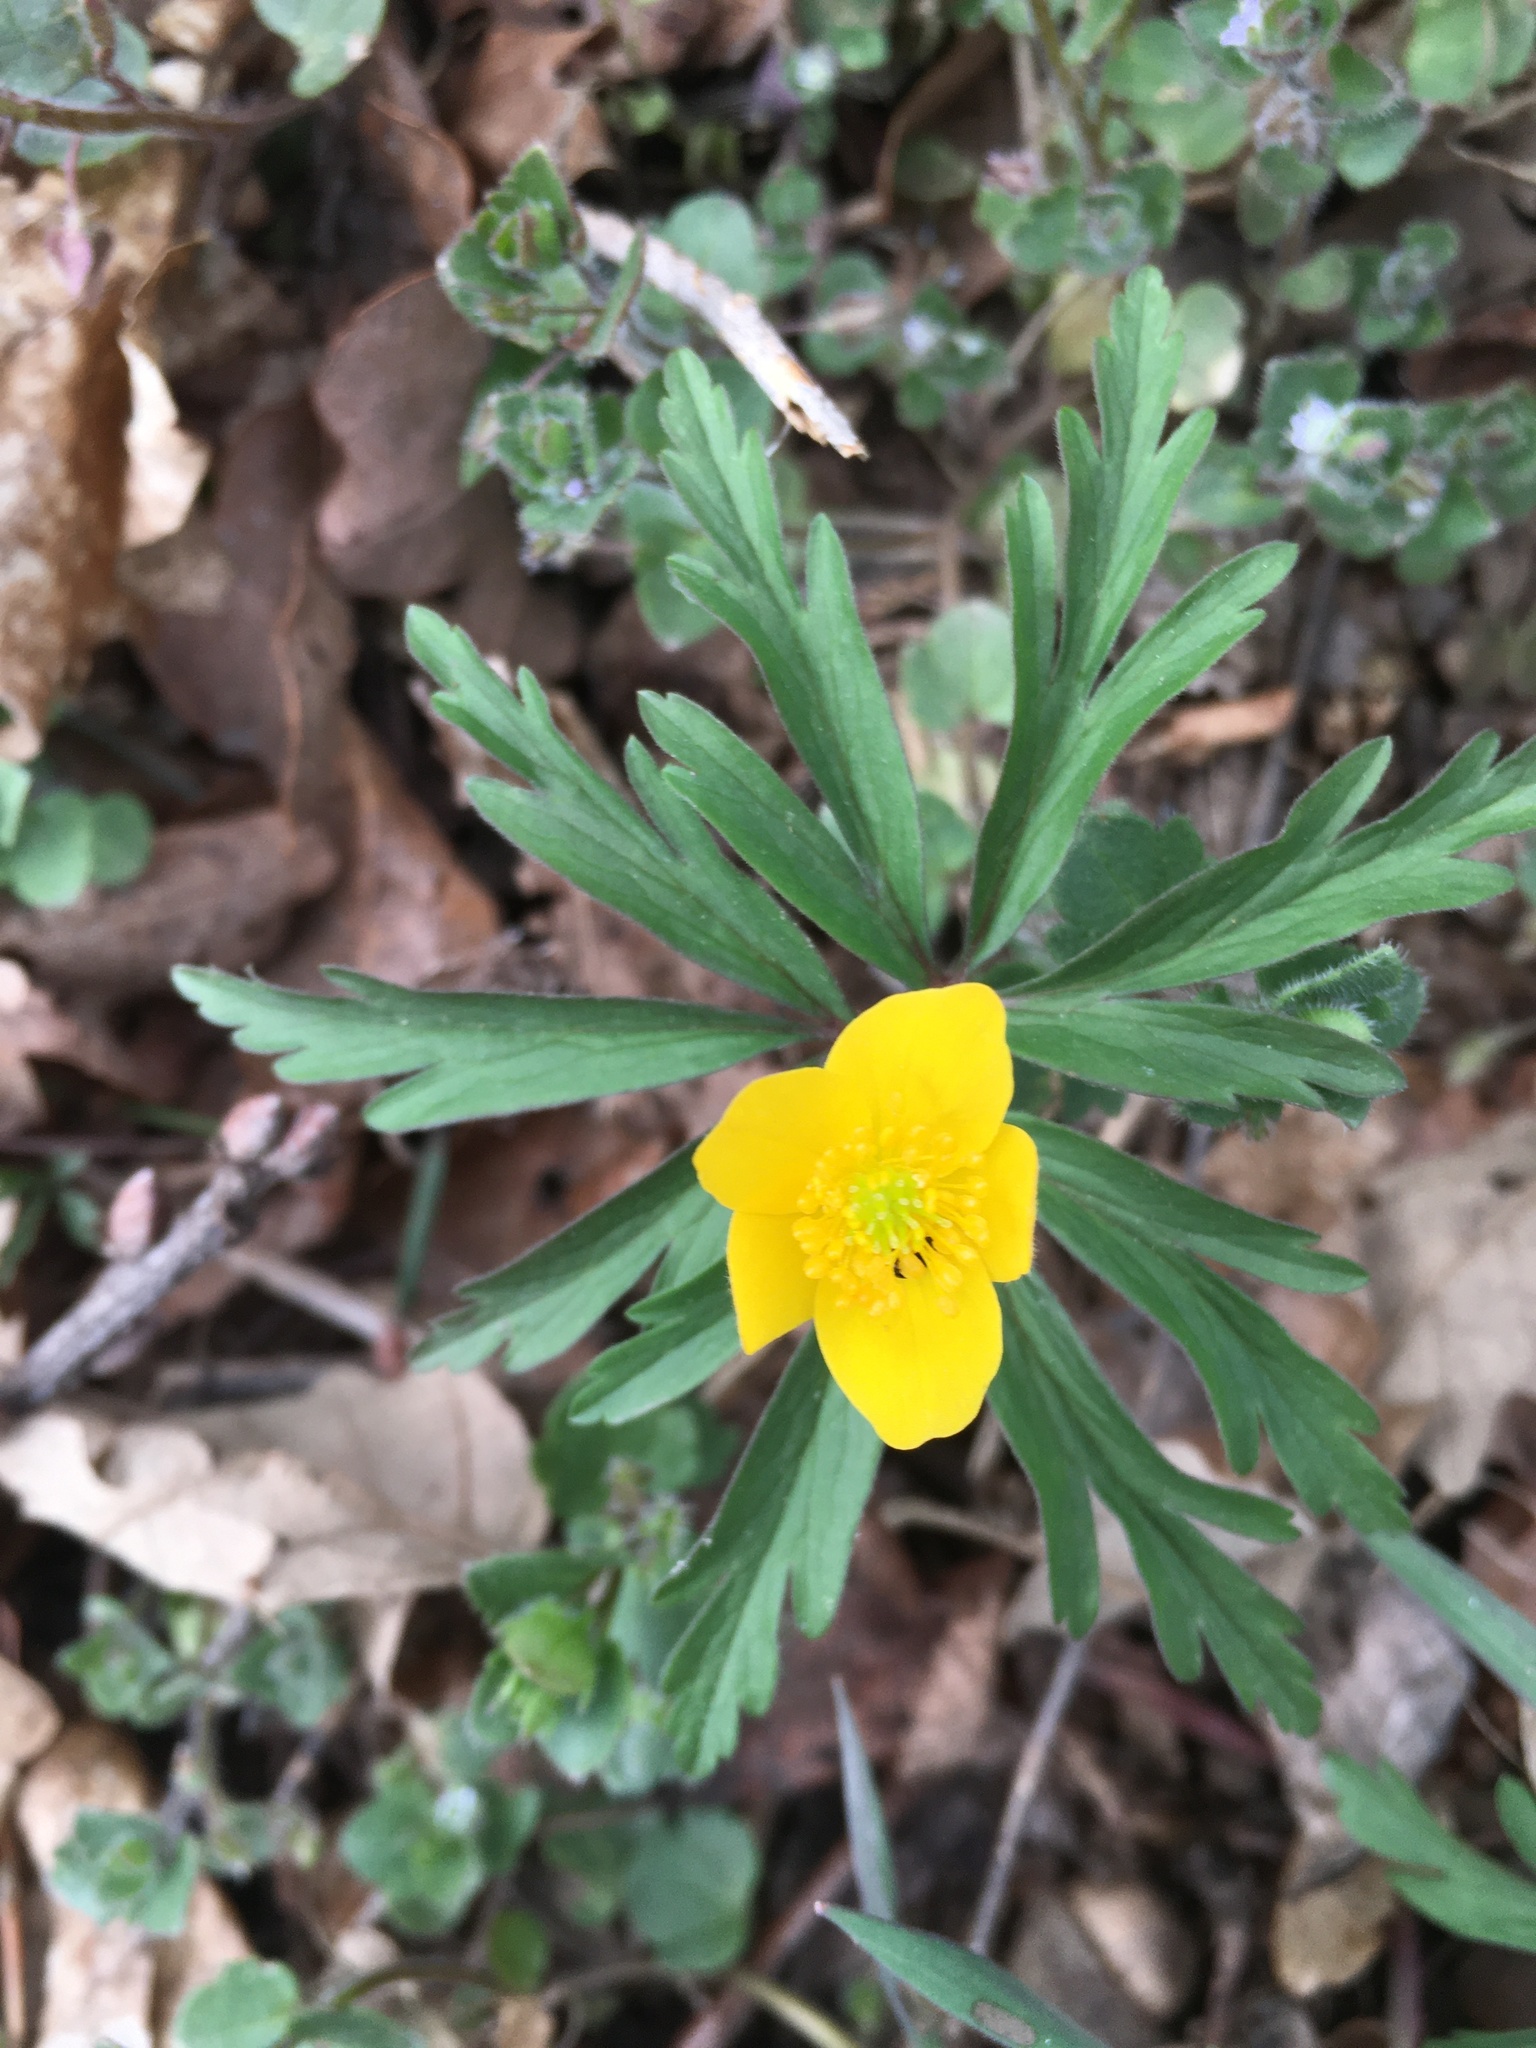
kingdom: Plantae
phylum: Tracheophyta
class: Magnoliopsida
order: Ranunculales
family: Ranunculaceae
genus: Anemone
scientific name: Anemone ranunculoides
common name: Yellow anemone
